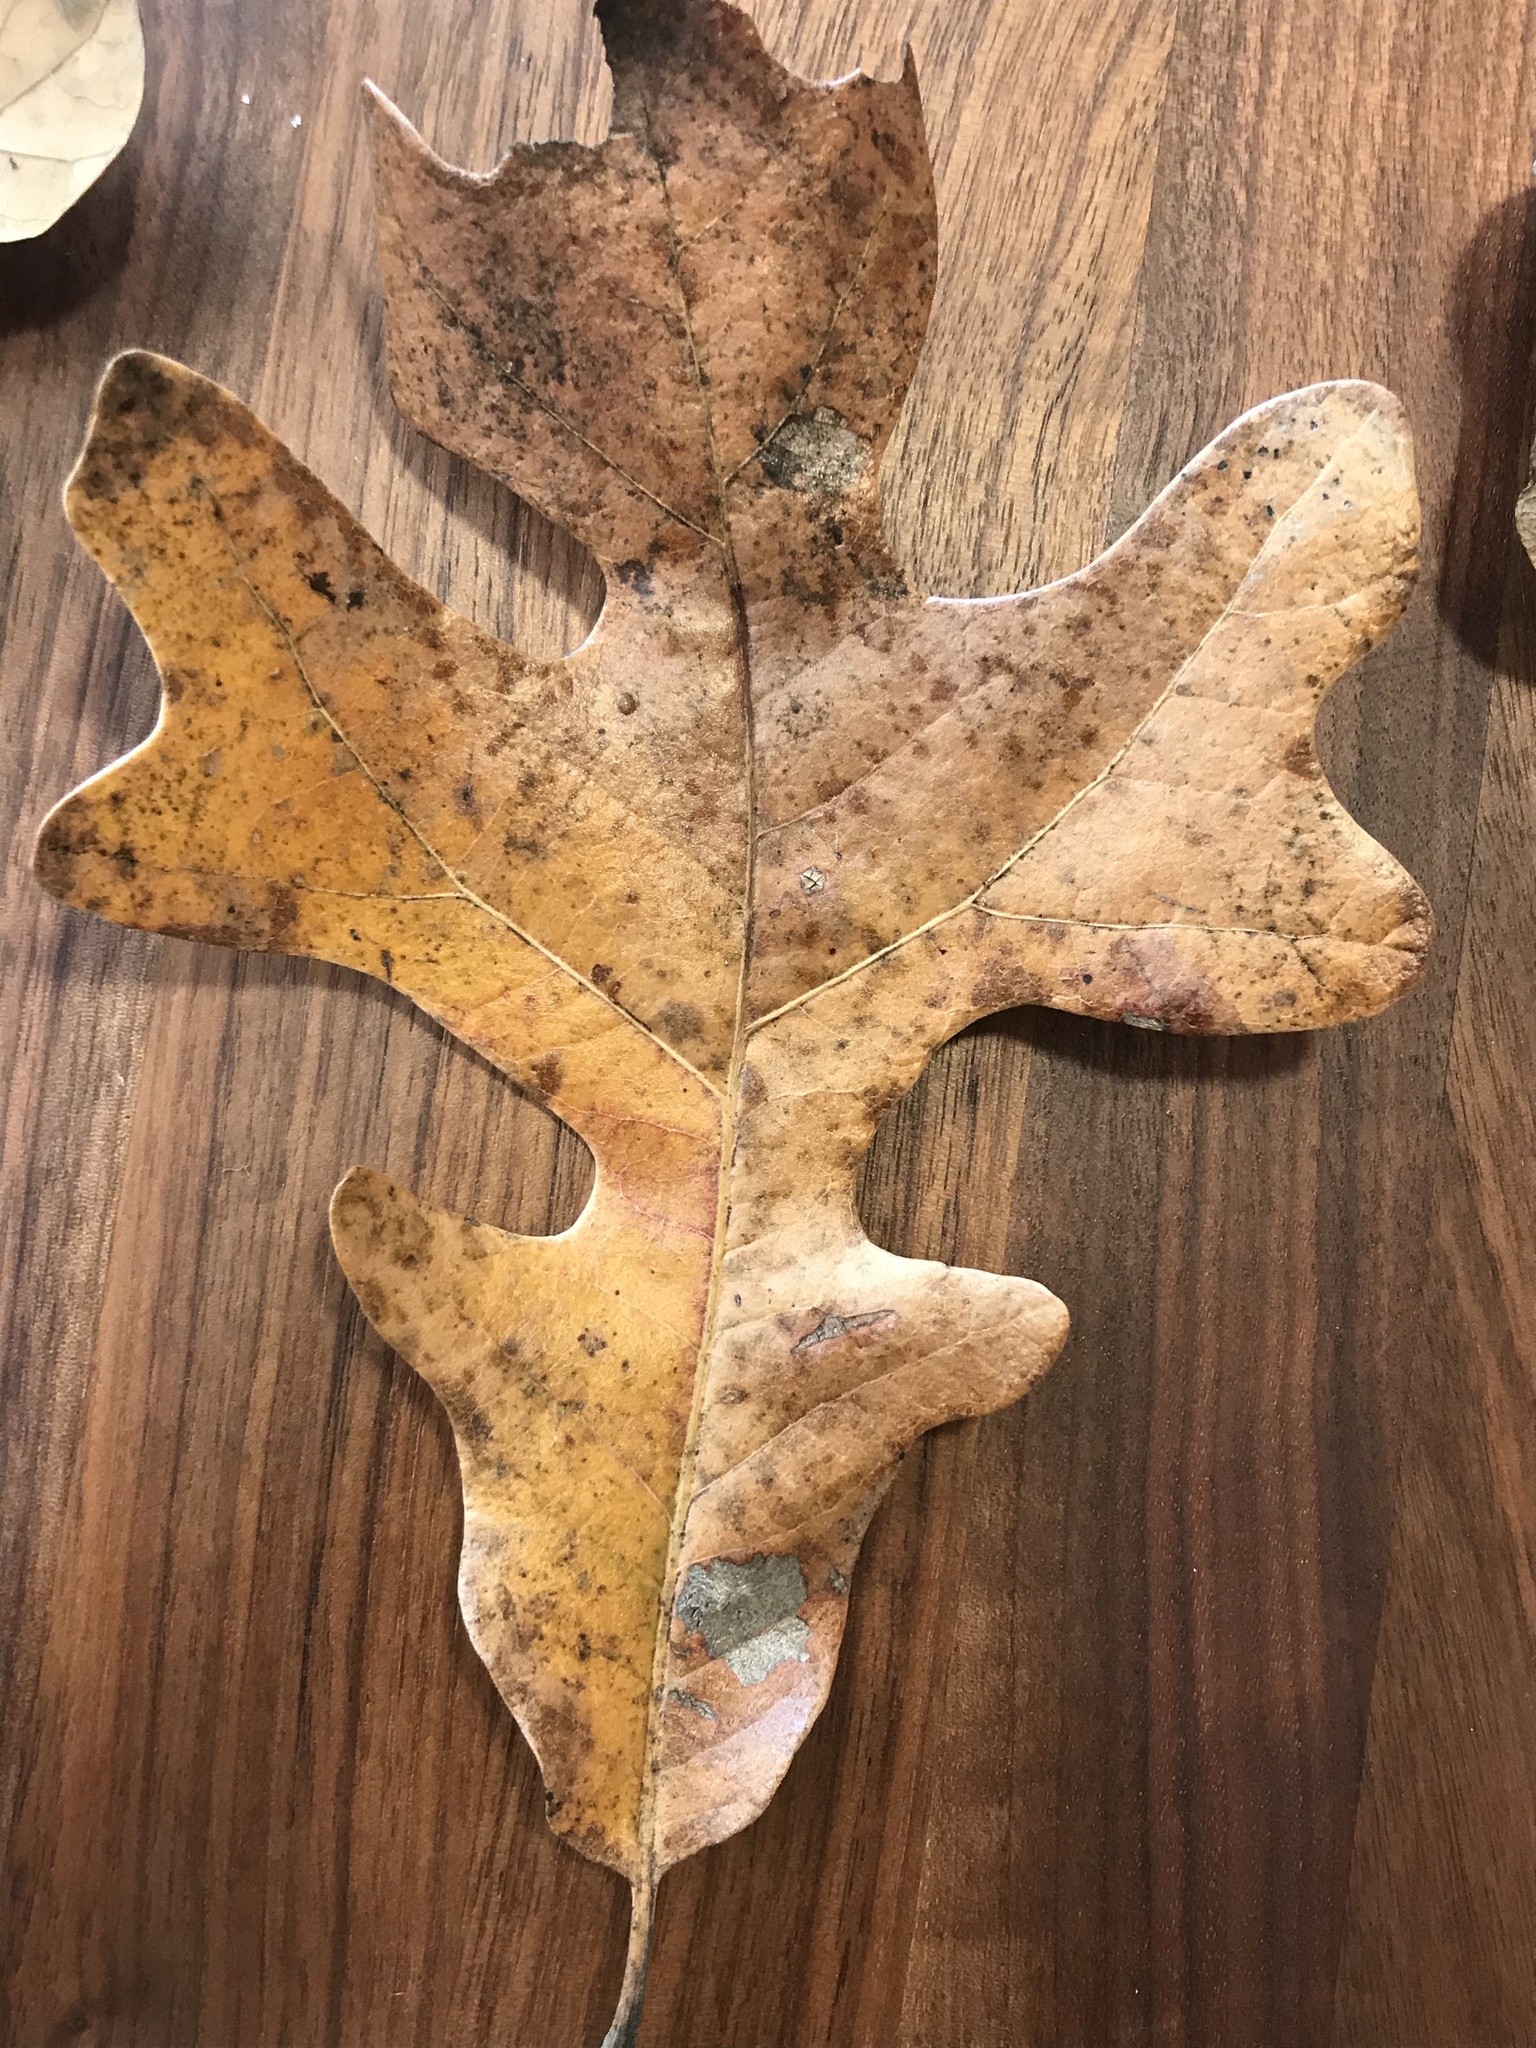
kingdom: Plantae
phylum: Tracheophyta
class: Magnoliopsida
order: Fagales
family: Fagaceae
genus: Quercus
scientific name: Quercus stellata
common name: Post oak
